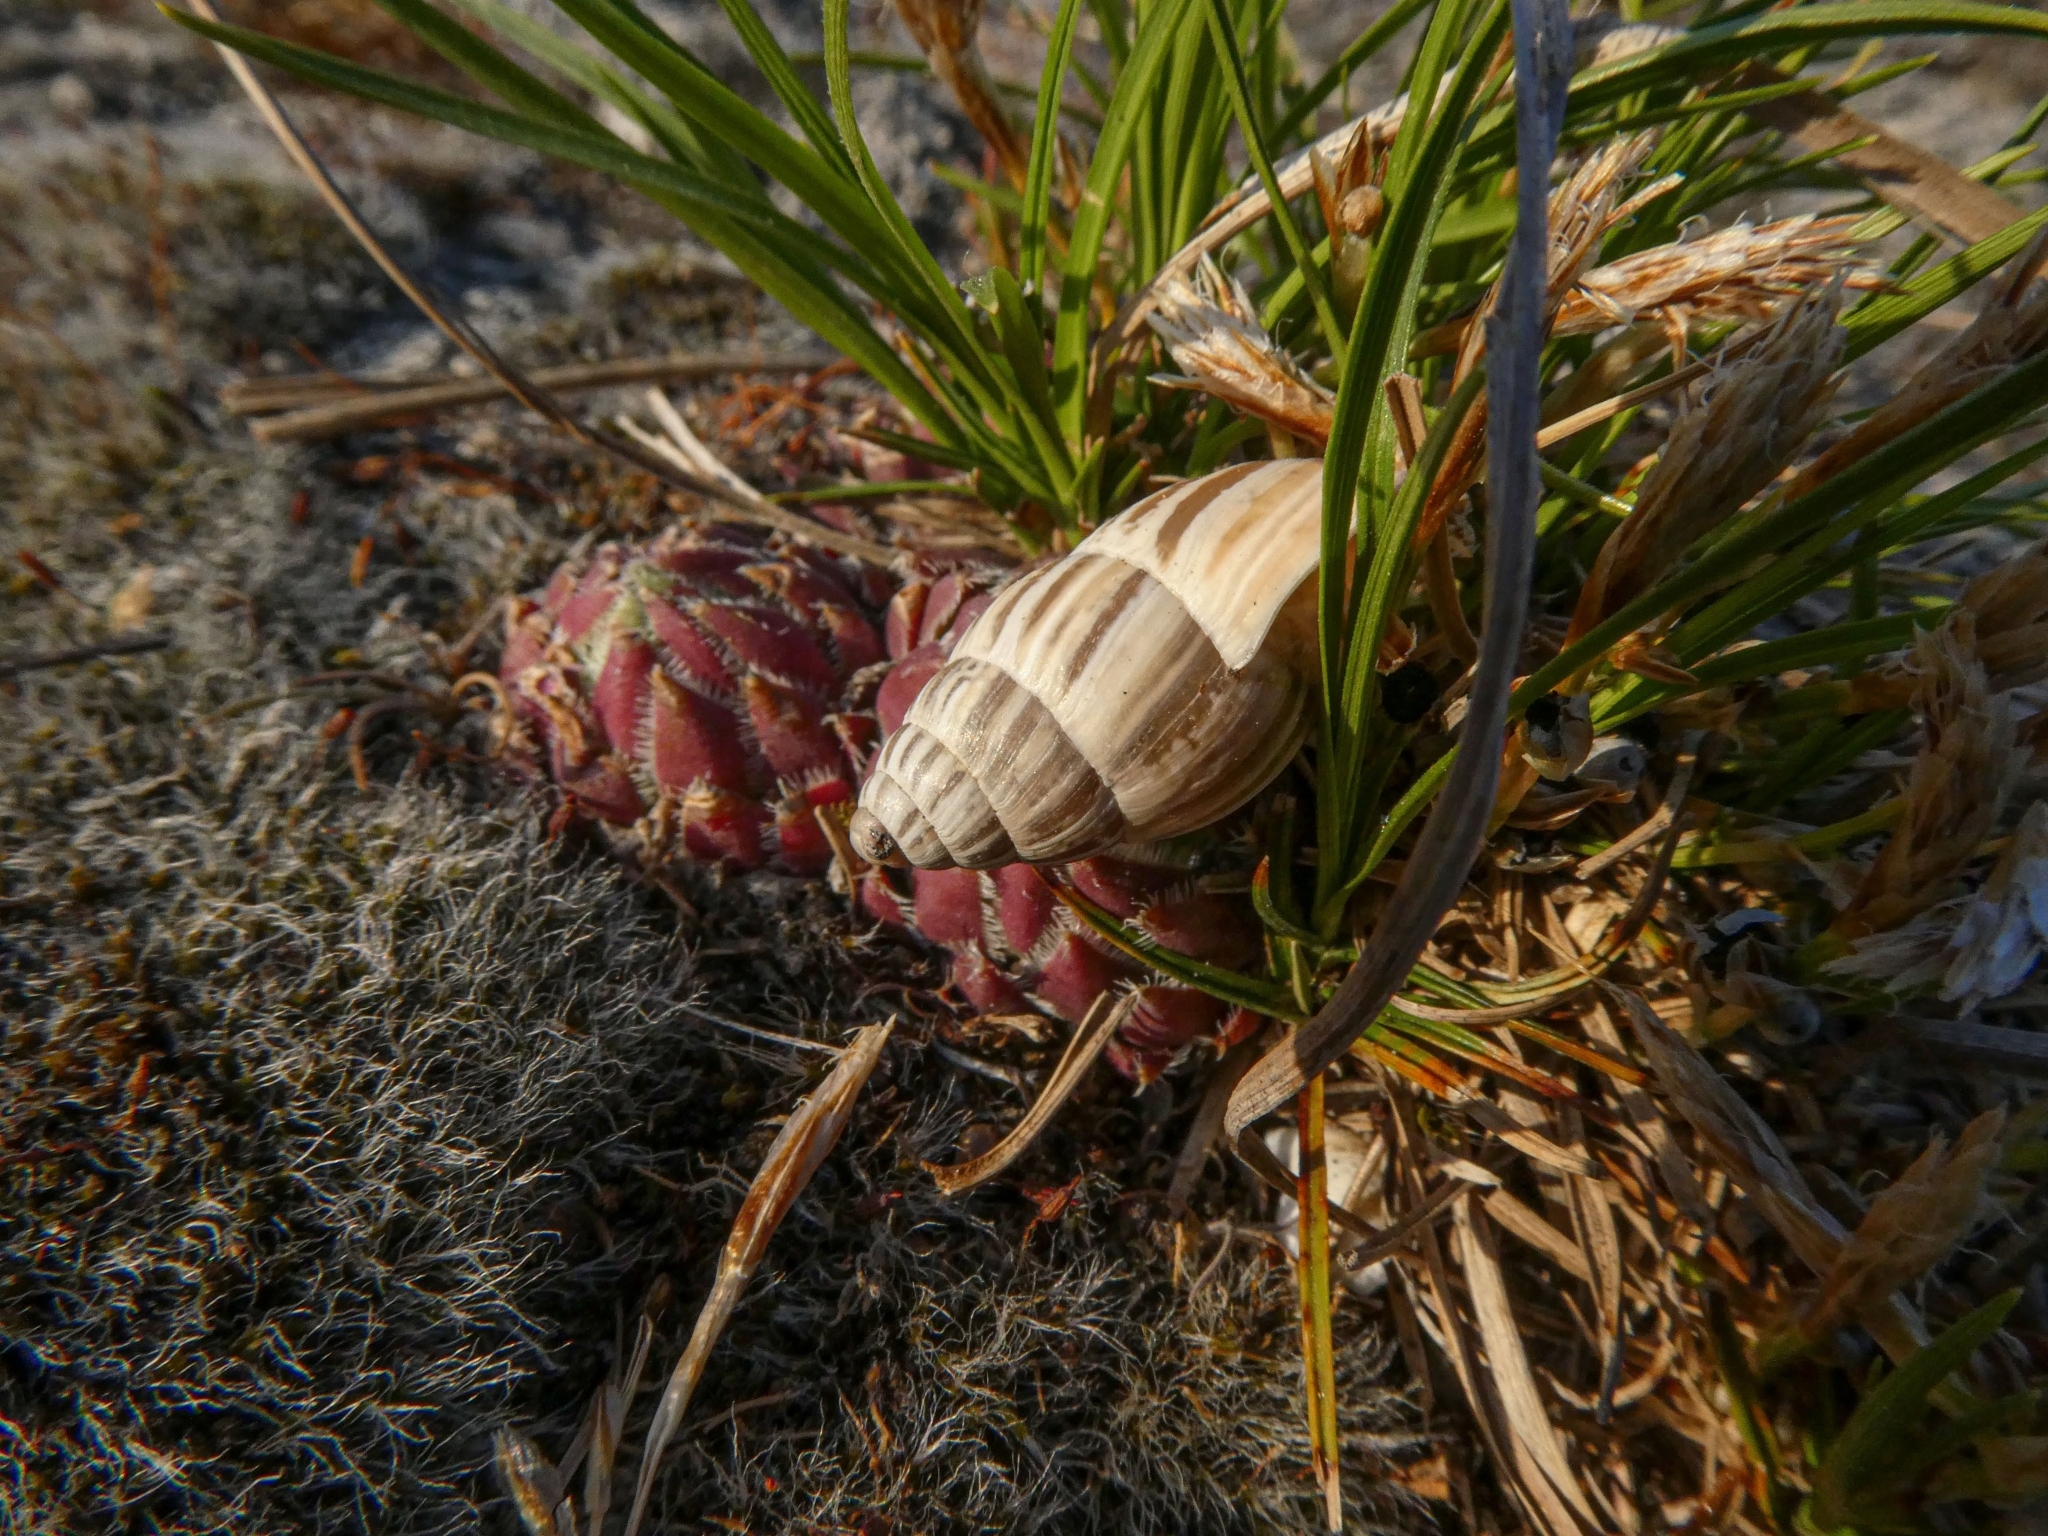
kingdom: Animalia
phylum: Mollusca
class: Gastropoda
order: Stylommatophora
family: Enidae
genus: Zebrina
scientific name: Zebrina detrita
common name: Large bulin
